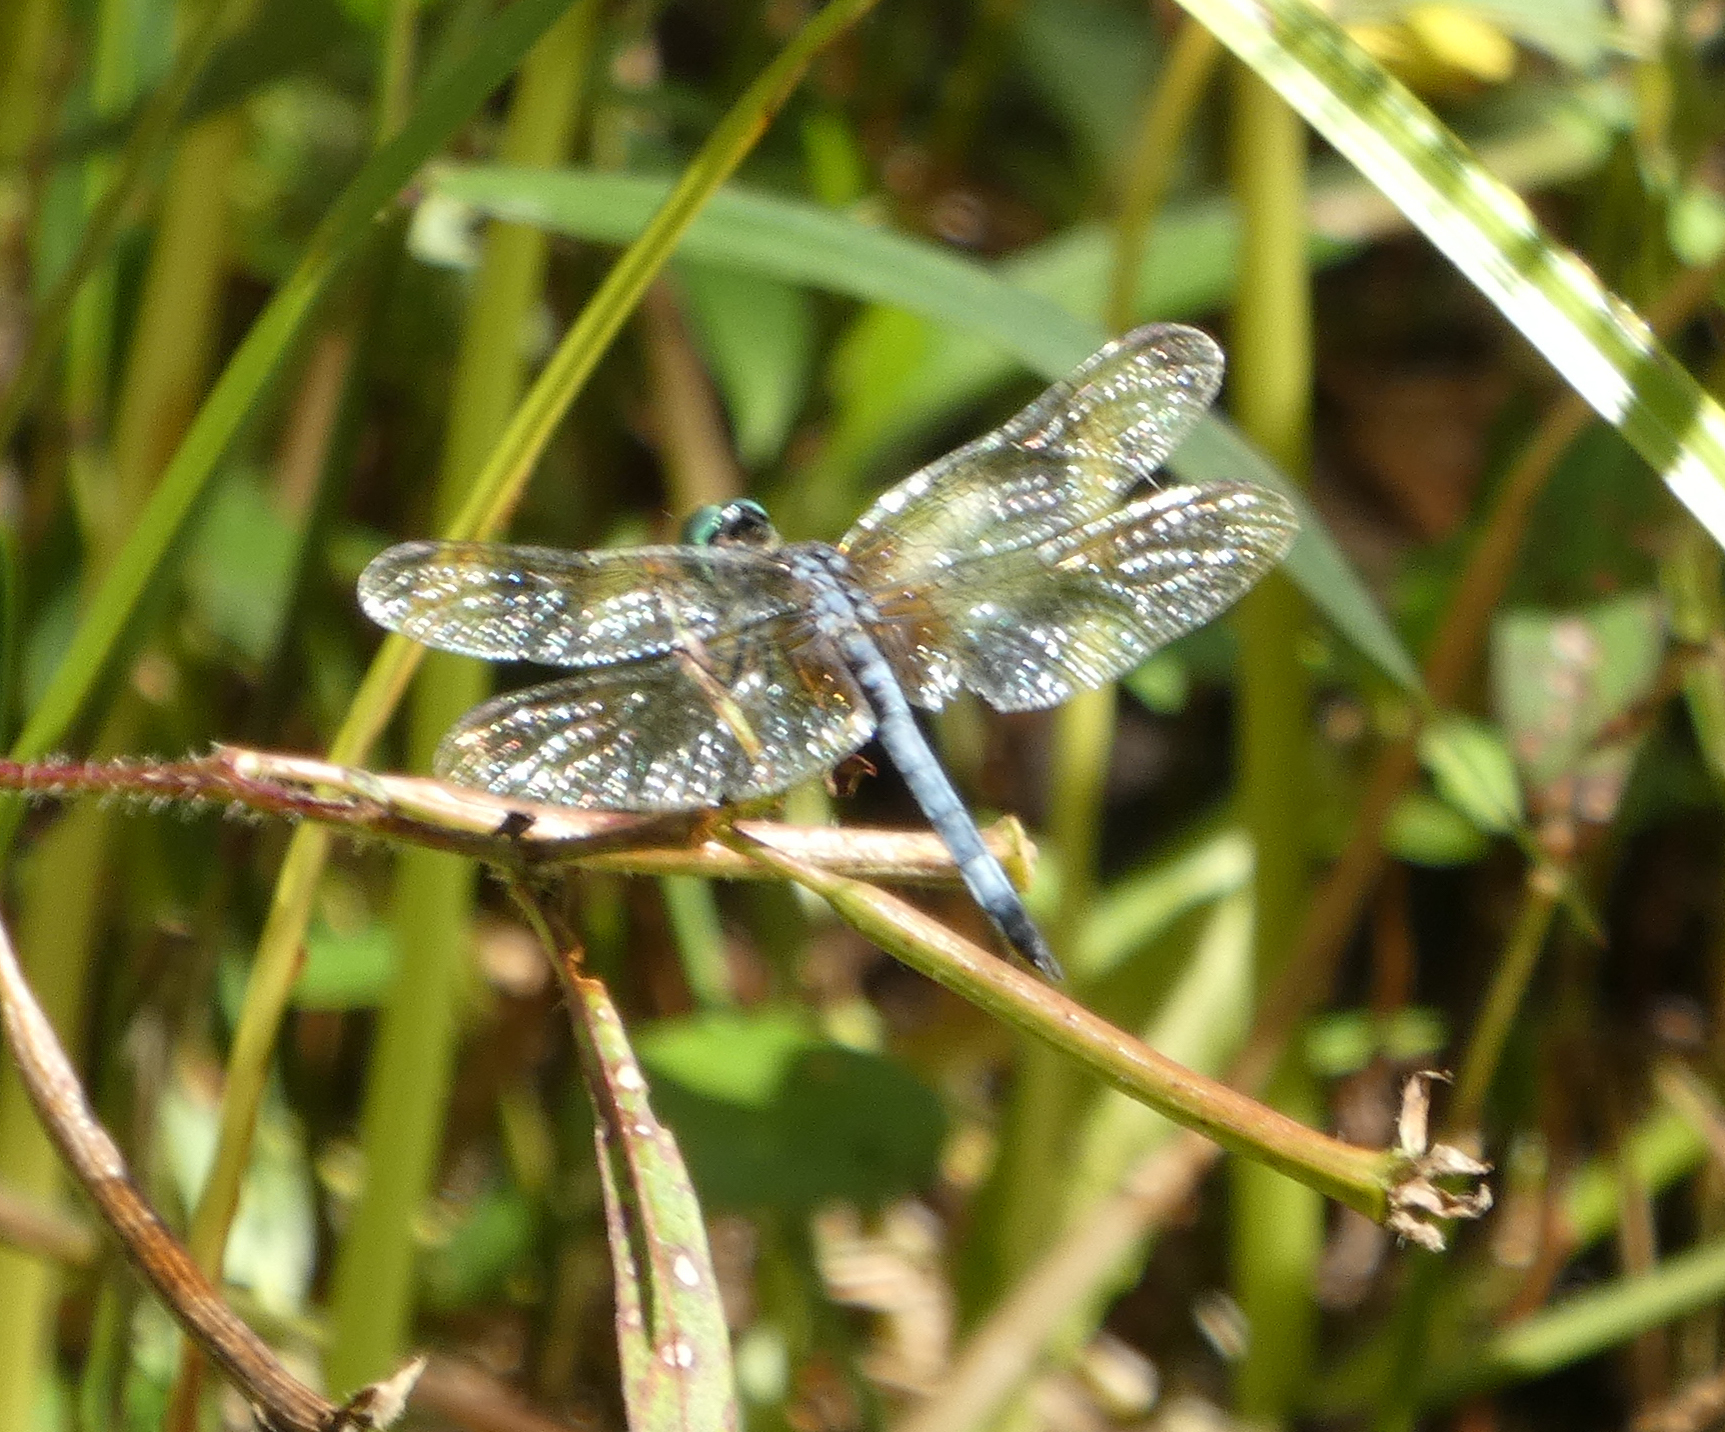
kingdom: Animalia
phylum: Arthropoda
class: Insecta
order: Odonata
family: Libellulidae
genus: Pachydiplax
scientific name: Pachydiplax longipennis
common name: Blue dasher
